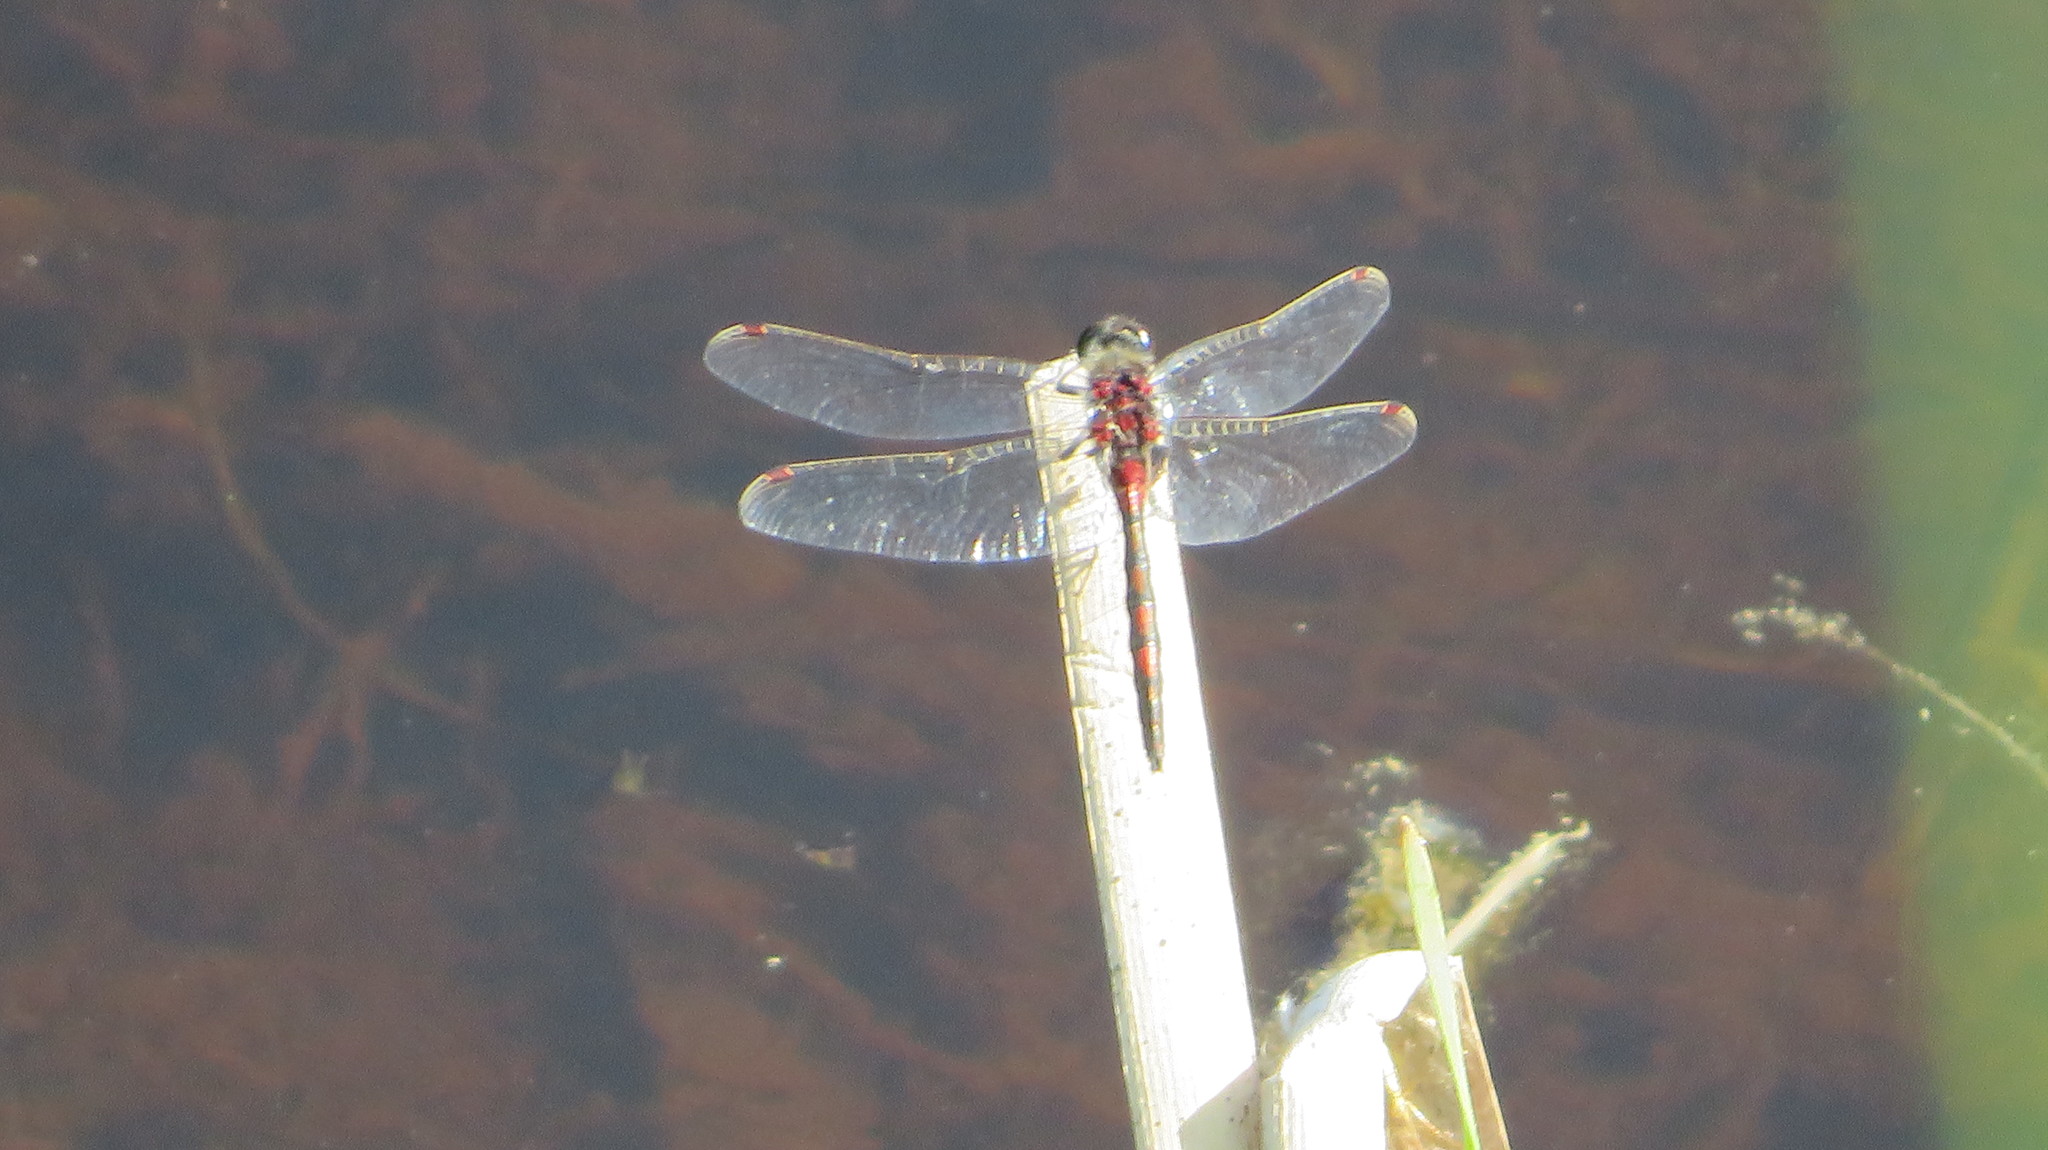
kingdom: Animalia
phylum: Arthropoda
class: Insecta
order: Odonata
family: Libellulidae
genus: Leucorrhinia
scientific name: Leucorrhinia rubicunda
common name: Ruby whiteface
